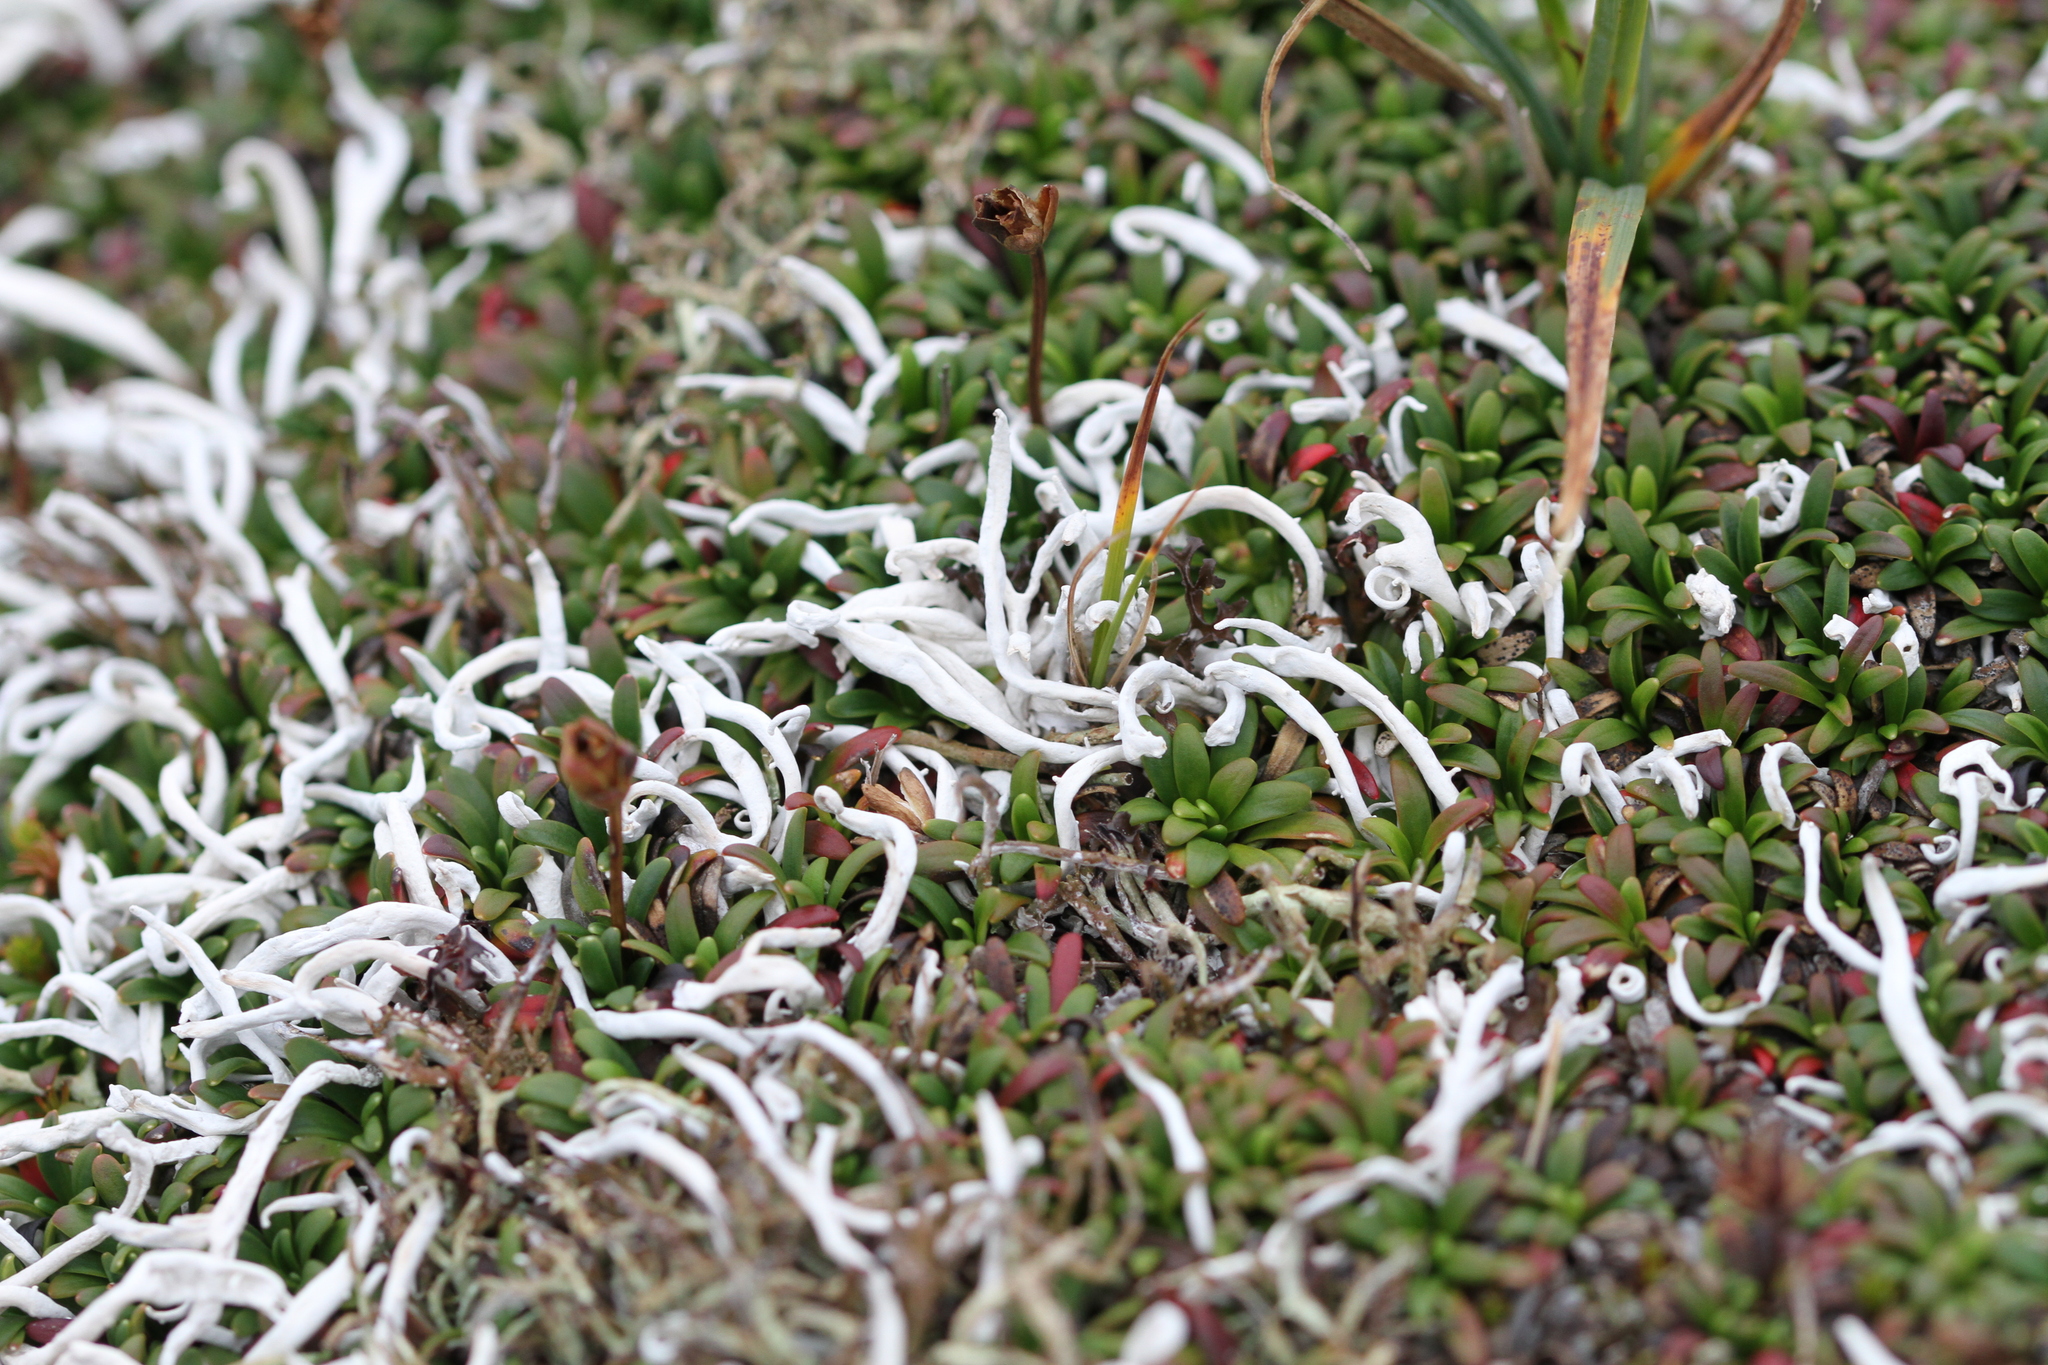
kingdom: Fungi
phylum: Ascomycota
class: Lecanoromycetes
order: Pertusariales
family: Icmadophilaceae
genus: Thamnolia
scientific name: Thamnolia vermicularis
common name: Whiteworm lichen
